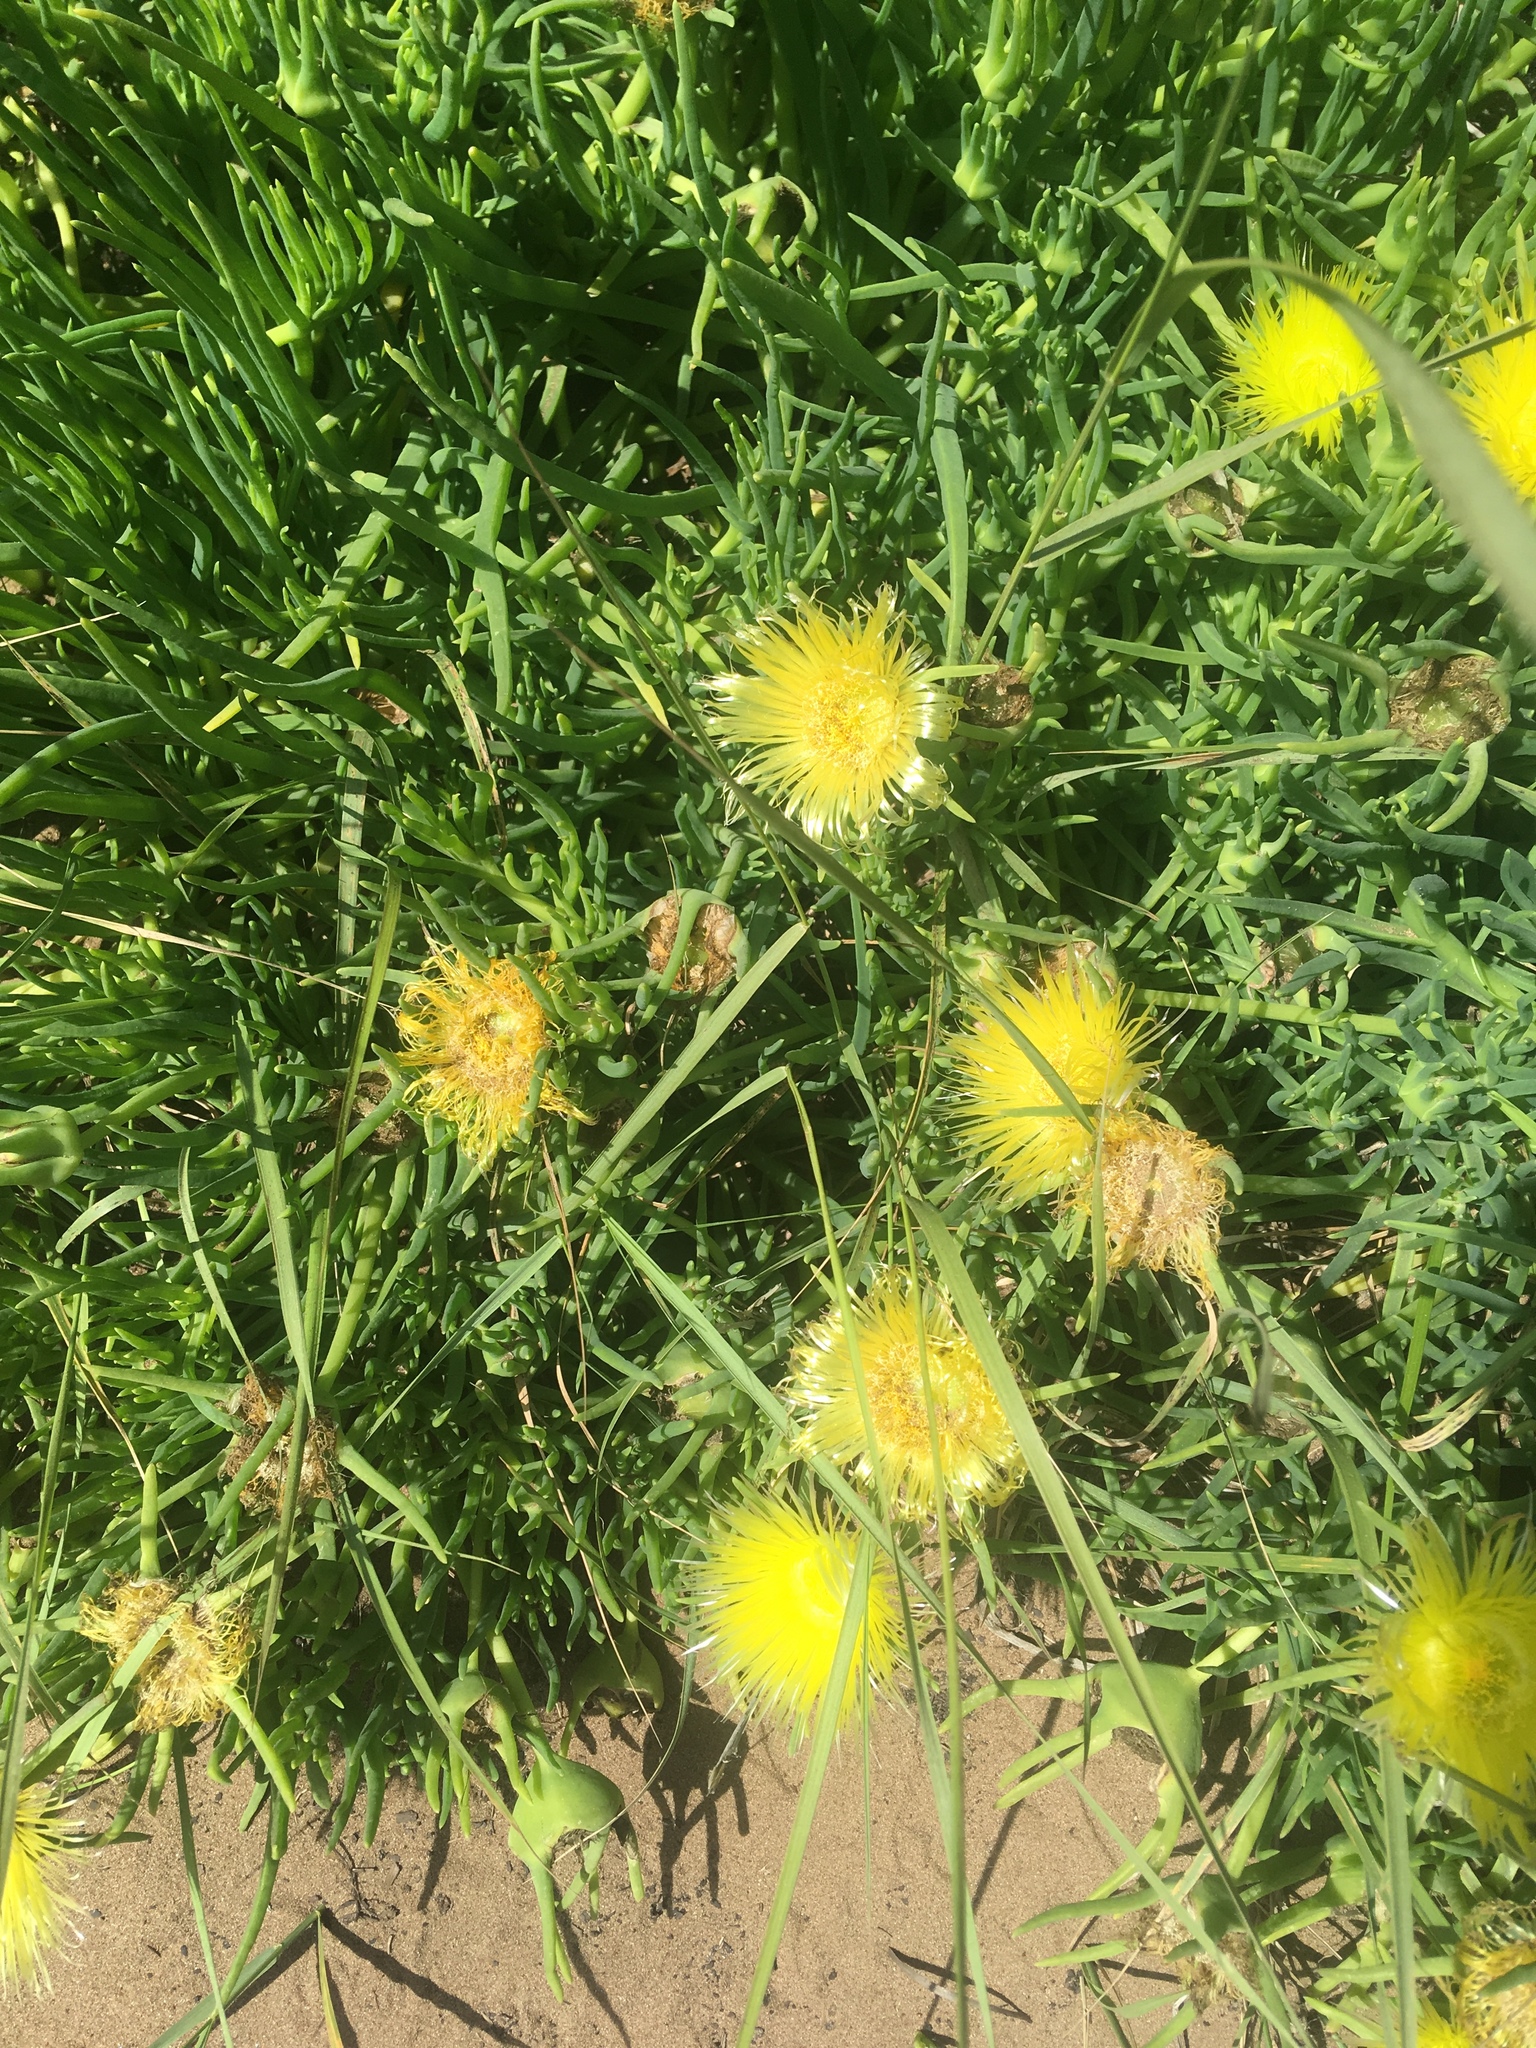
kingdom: Plantae
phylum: Tracheophyta
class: Magnoliopsida
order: Caryophyllales
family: Aizoaceae
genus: Conicosia
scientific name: Conicosia pugioniformis
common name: Narrow-leaved iceplant
